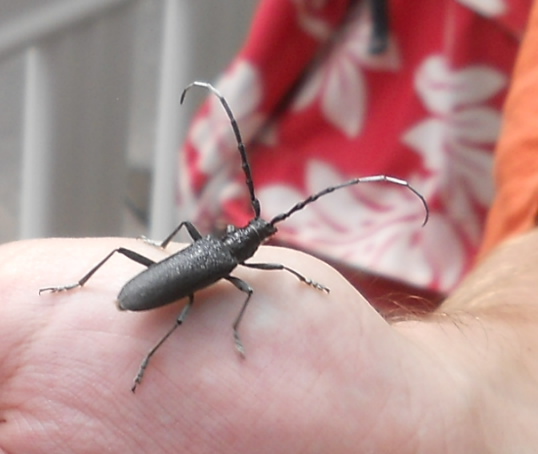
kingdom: Animalia
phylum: Arthropoda
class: Insecta
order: Coleoptera
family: Cerambycidae
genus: Cerambyx
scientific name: Cerambyx scopolii
